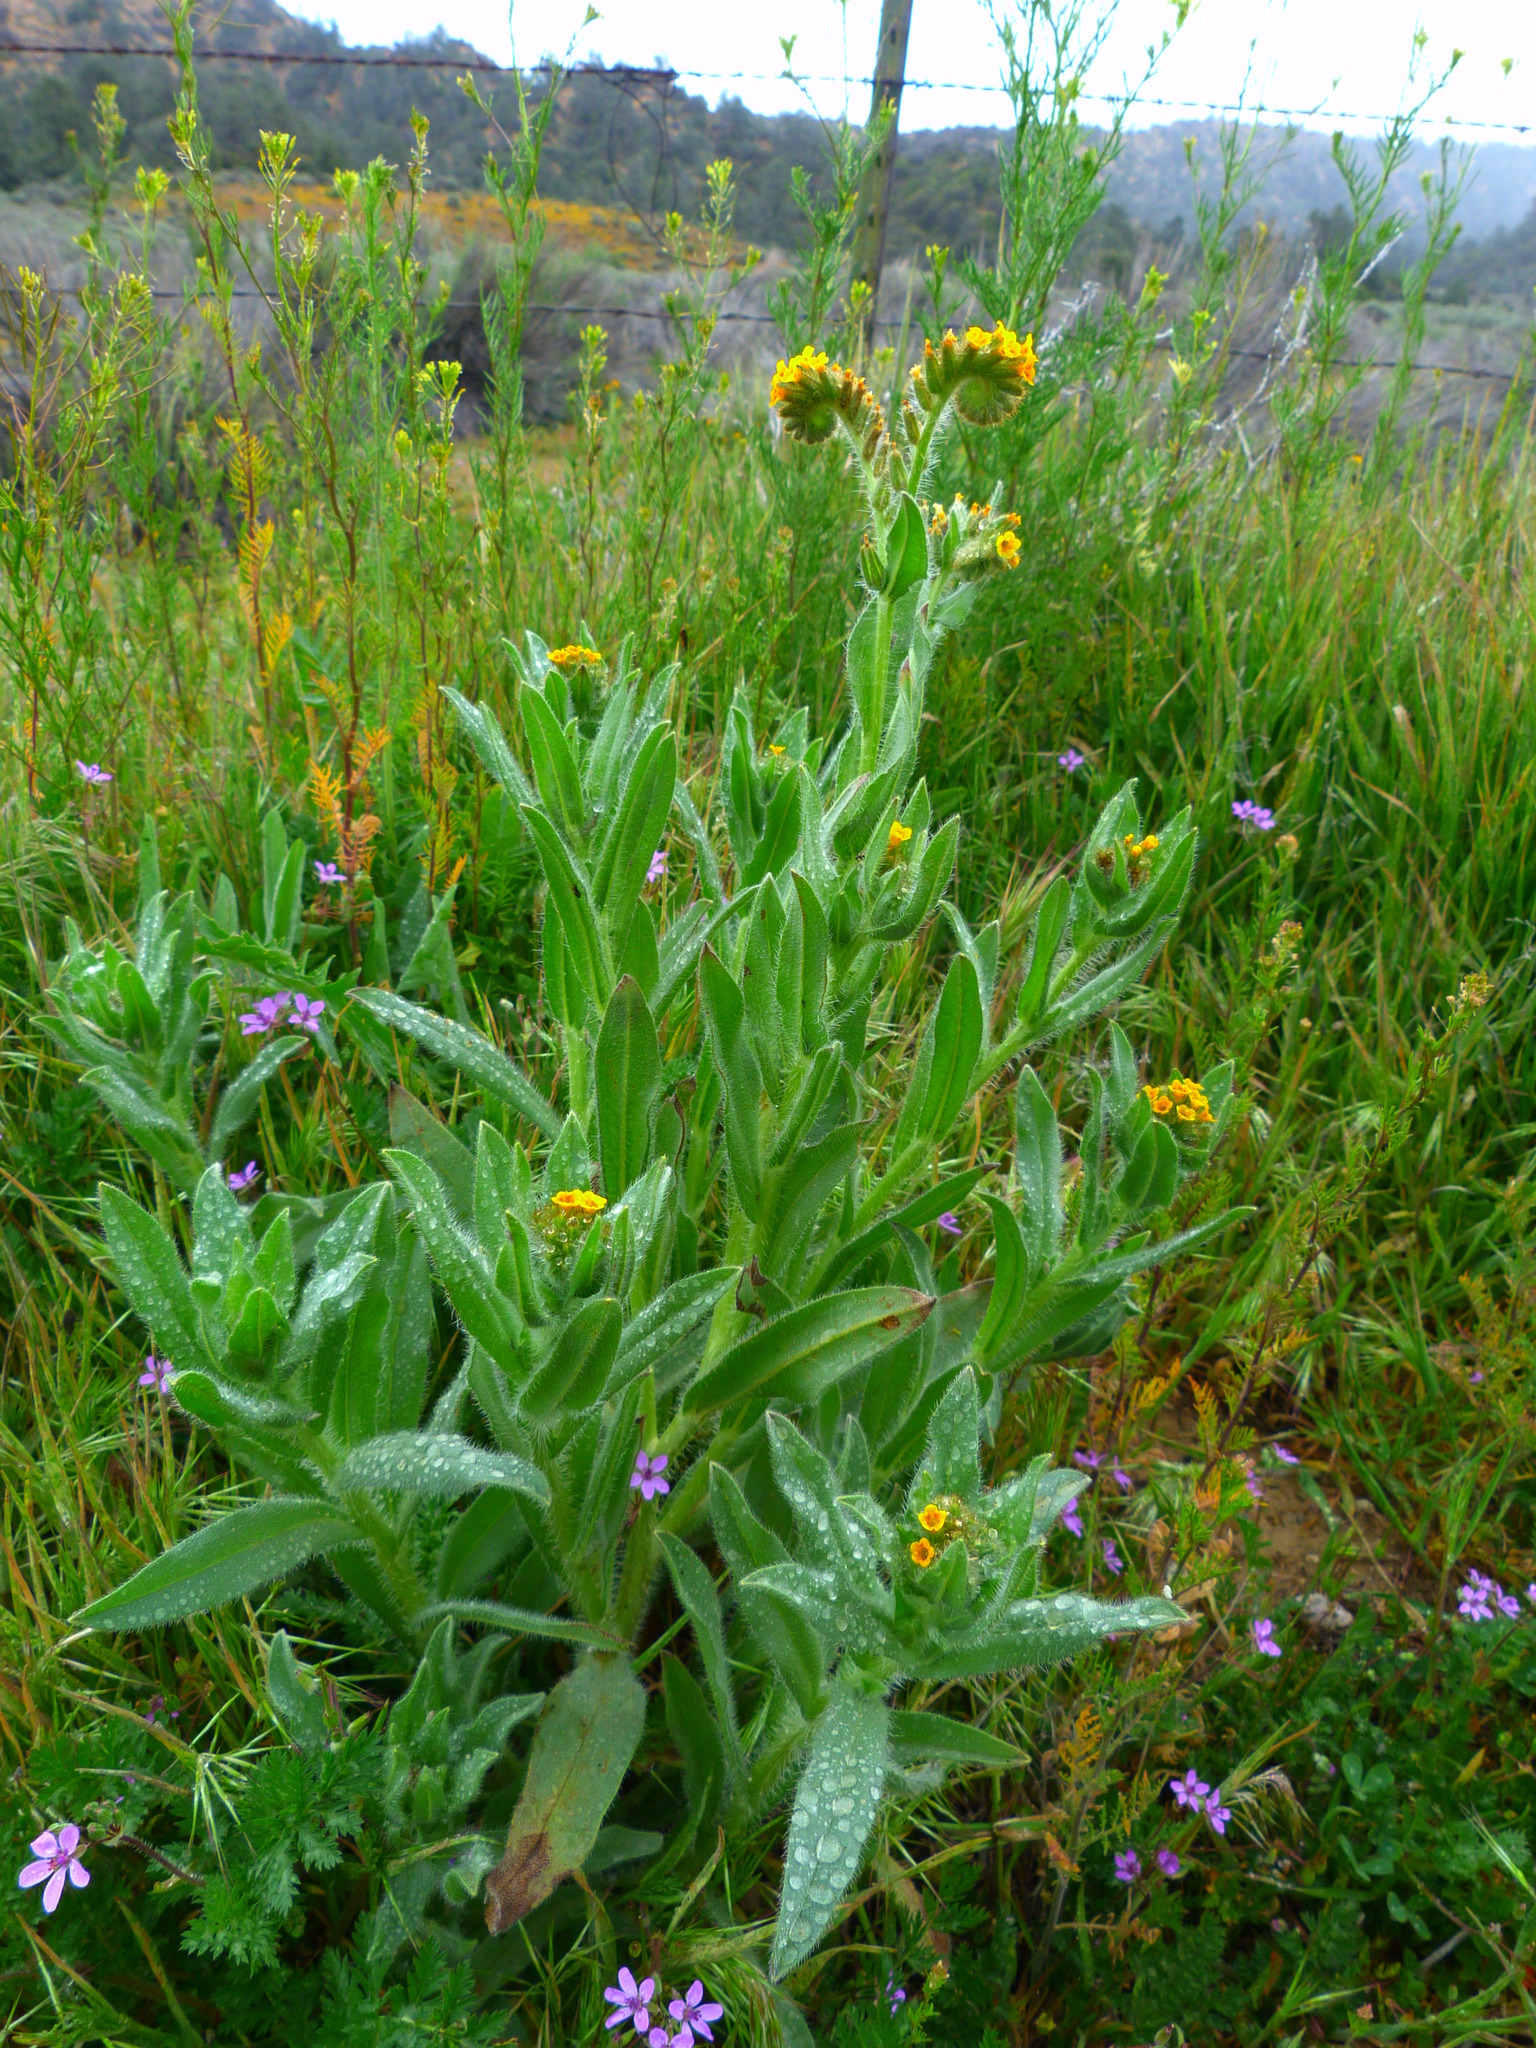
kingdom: Plantae
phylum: Tracheophyta
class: Magnoliopsida
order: Boraginales
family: Boraginaceae
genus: Amsinckia
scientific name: Amsinckia tessellata
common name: Tessellate fiddleneck
